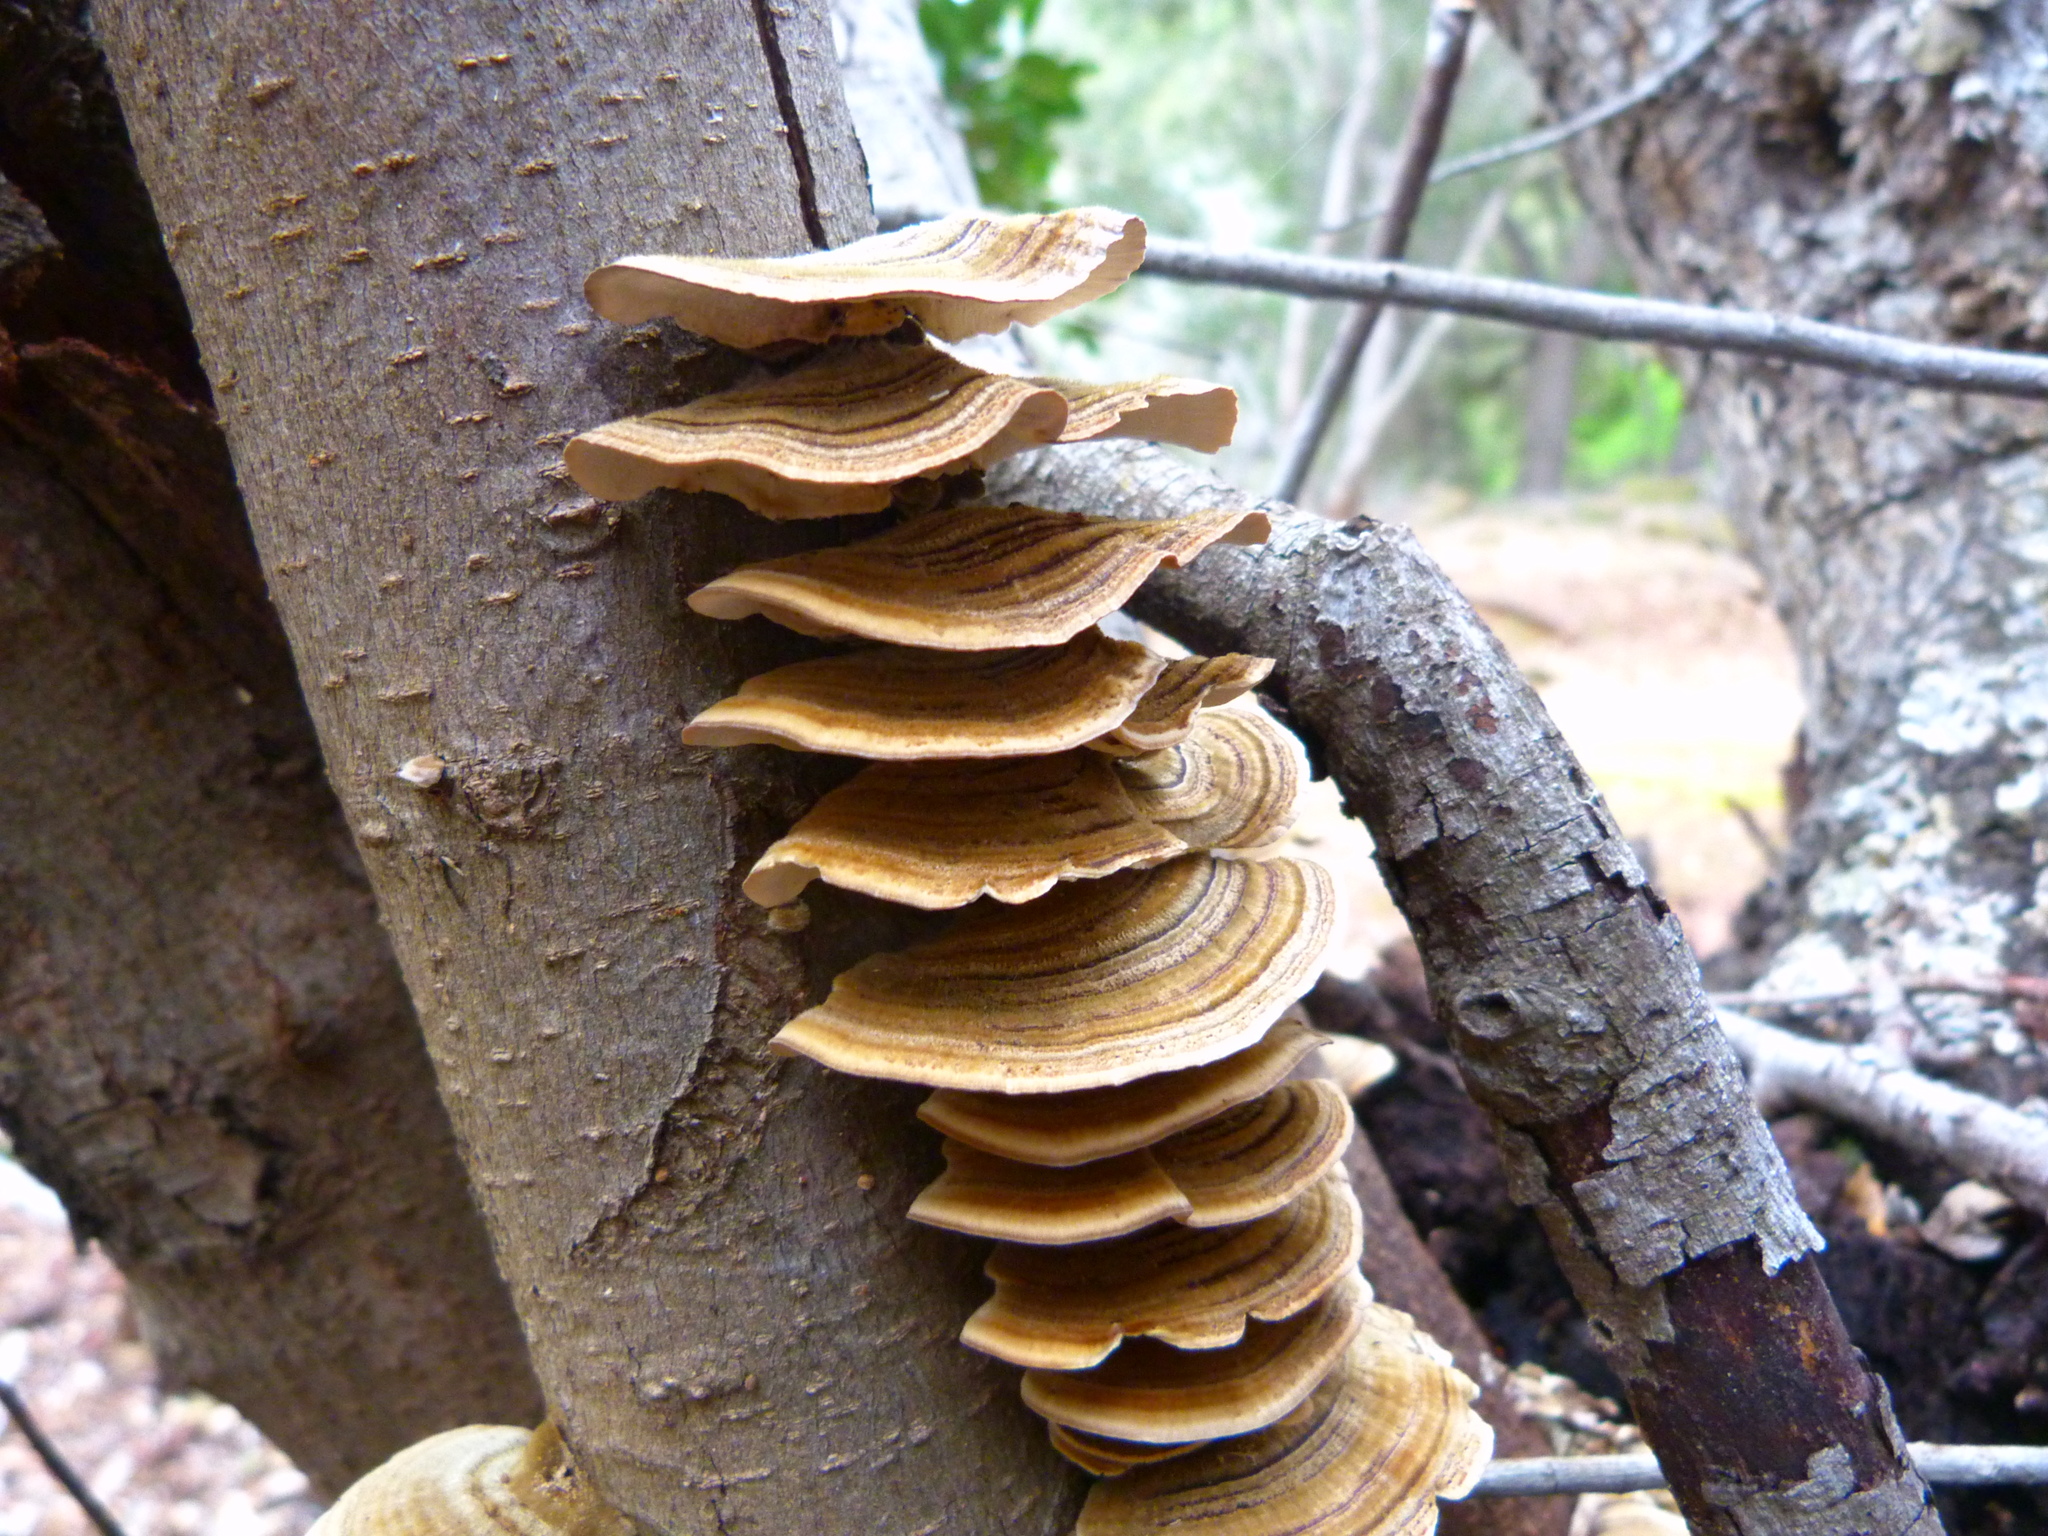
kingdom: Fungi
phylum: Basidiomycota
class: Agaricomycetes
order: Polyporales
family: Polyporaceae
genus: Trametes
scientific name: Trametes versicolor
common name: Turkeytail
